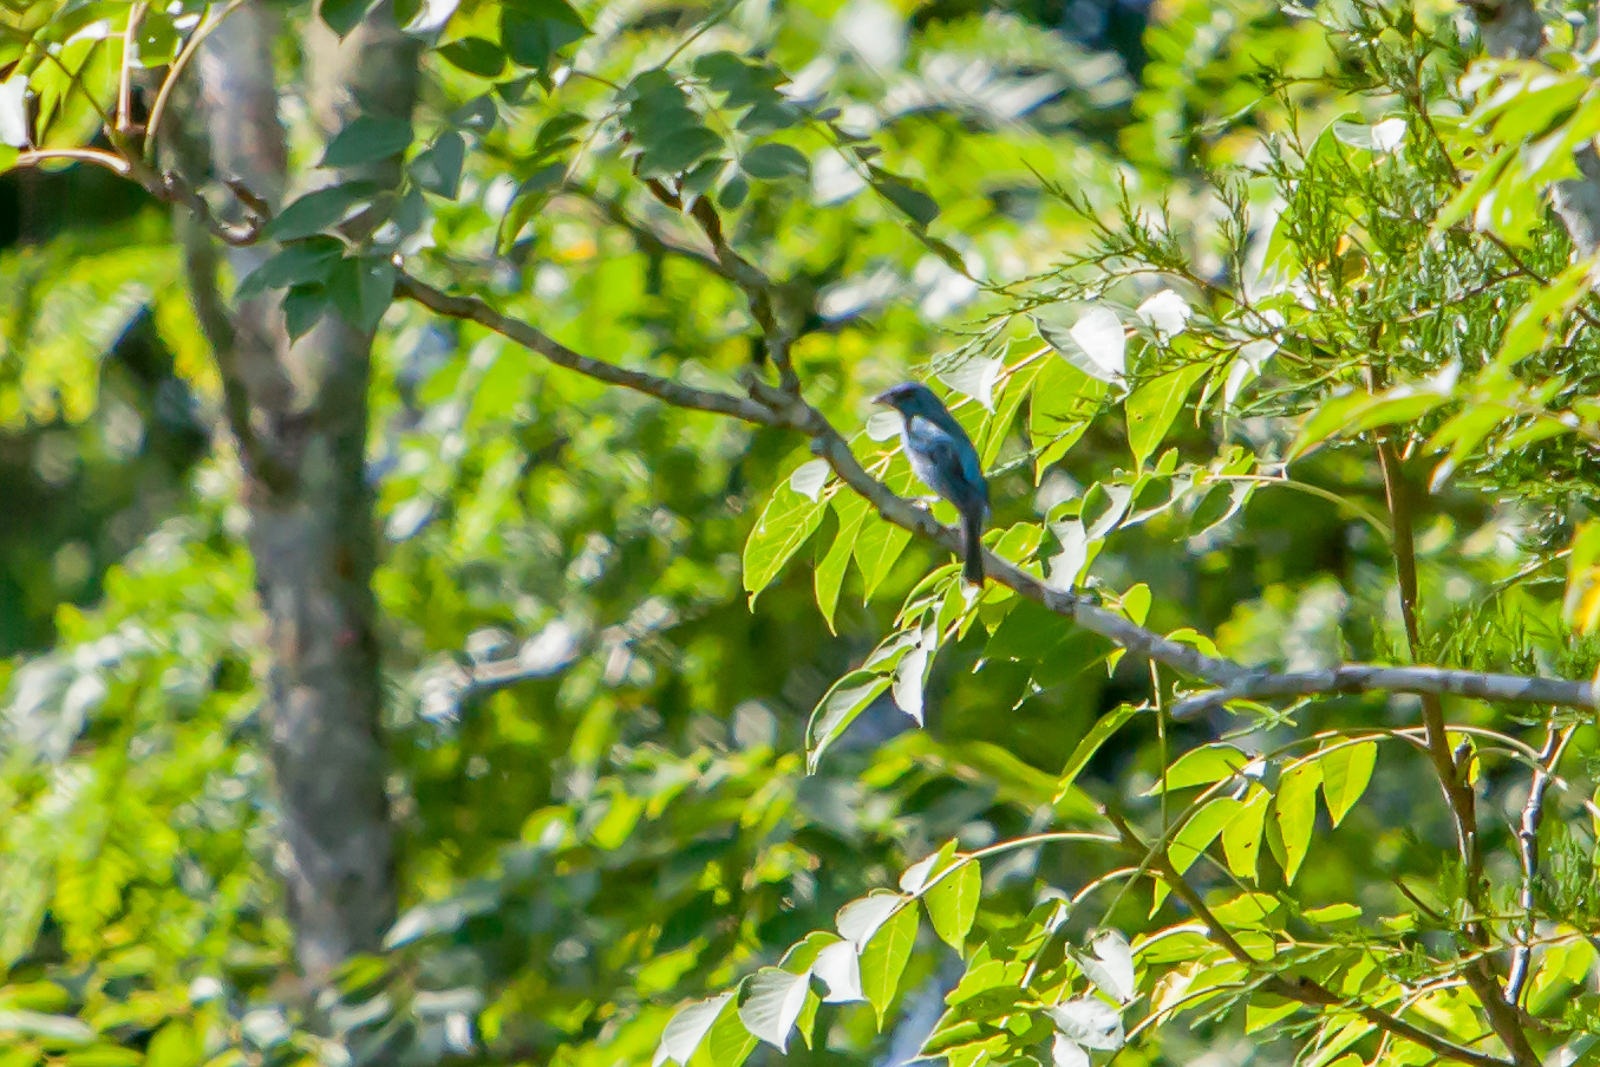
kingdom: Animalia
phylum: Chordata
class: Aves
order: Passeriformes
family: Cardinalidae
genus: Passerina
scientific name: Passerina cyanea
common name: Indigo bunting
